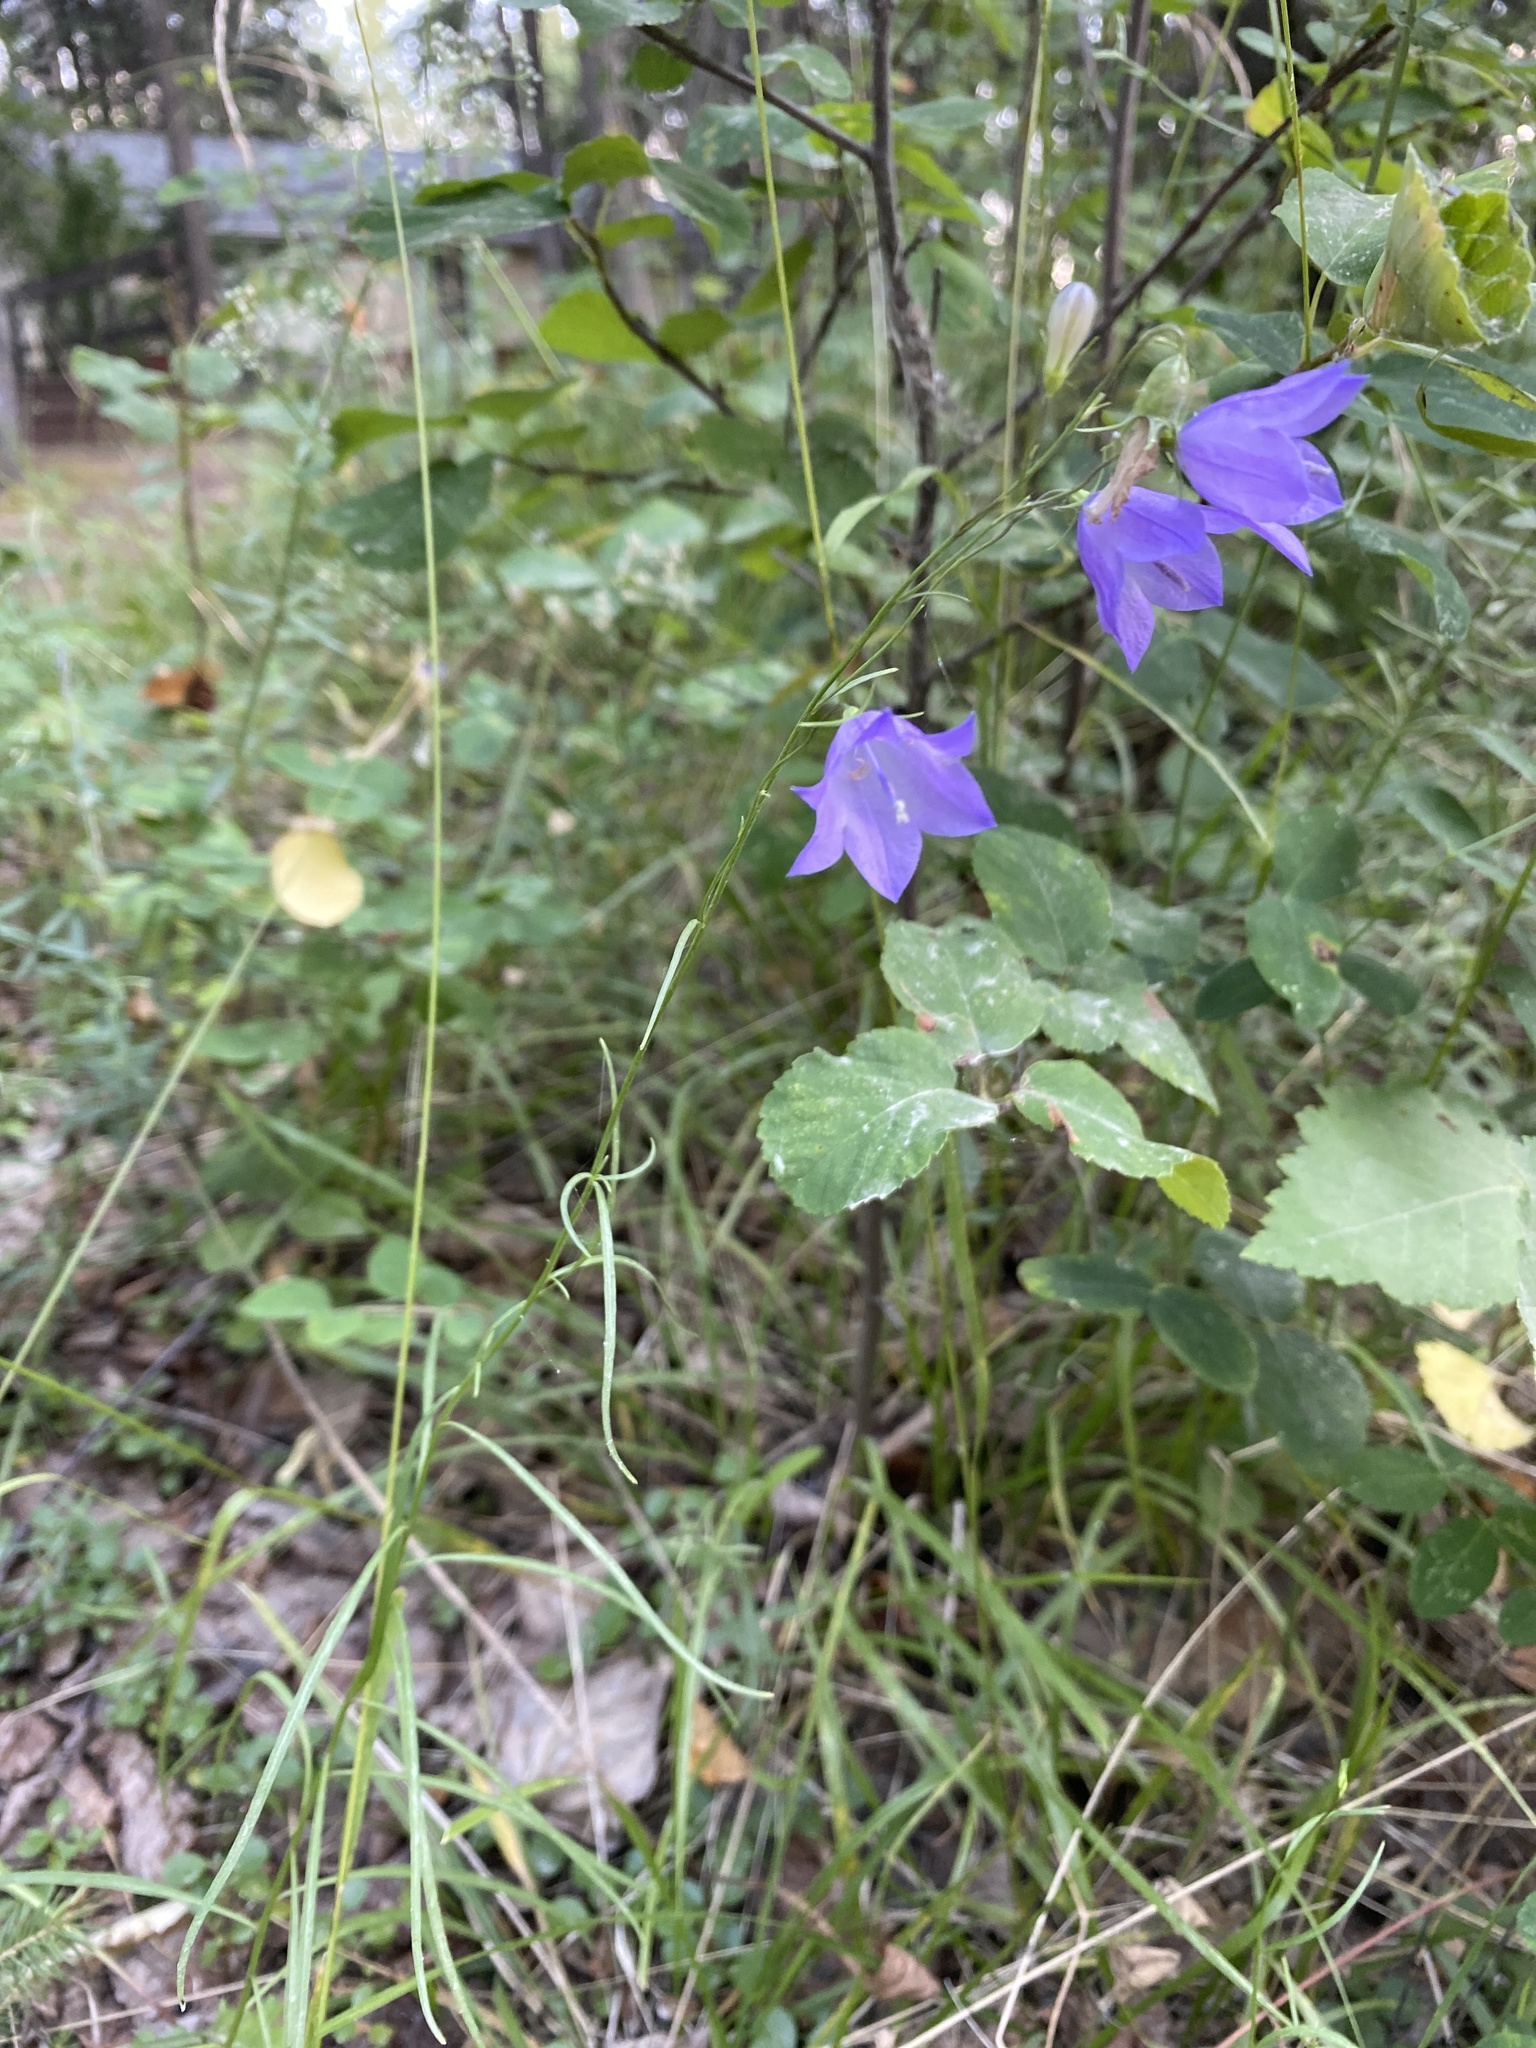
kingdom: Plantae
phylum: Tracheophyta
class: Magnoliopsida
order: Asterales
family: Campanulaceae
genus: Campanula
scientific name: Campanula alaskana
